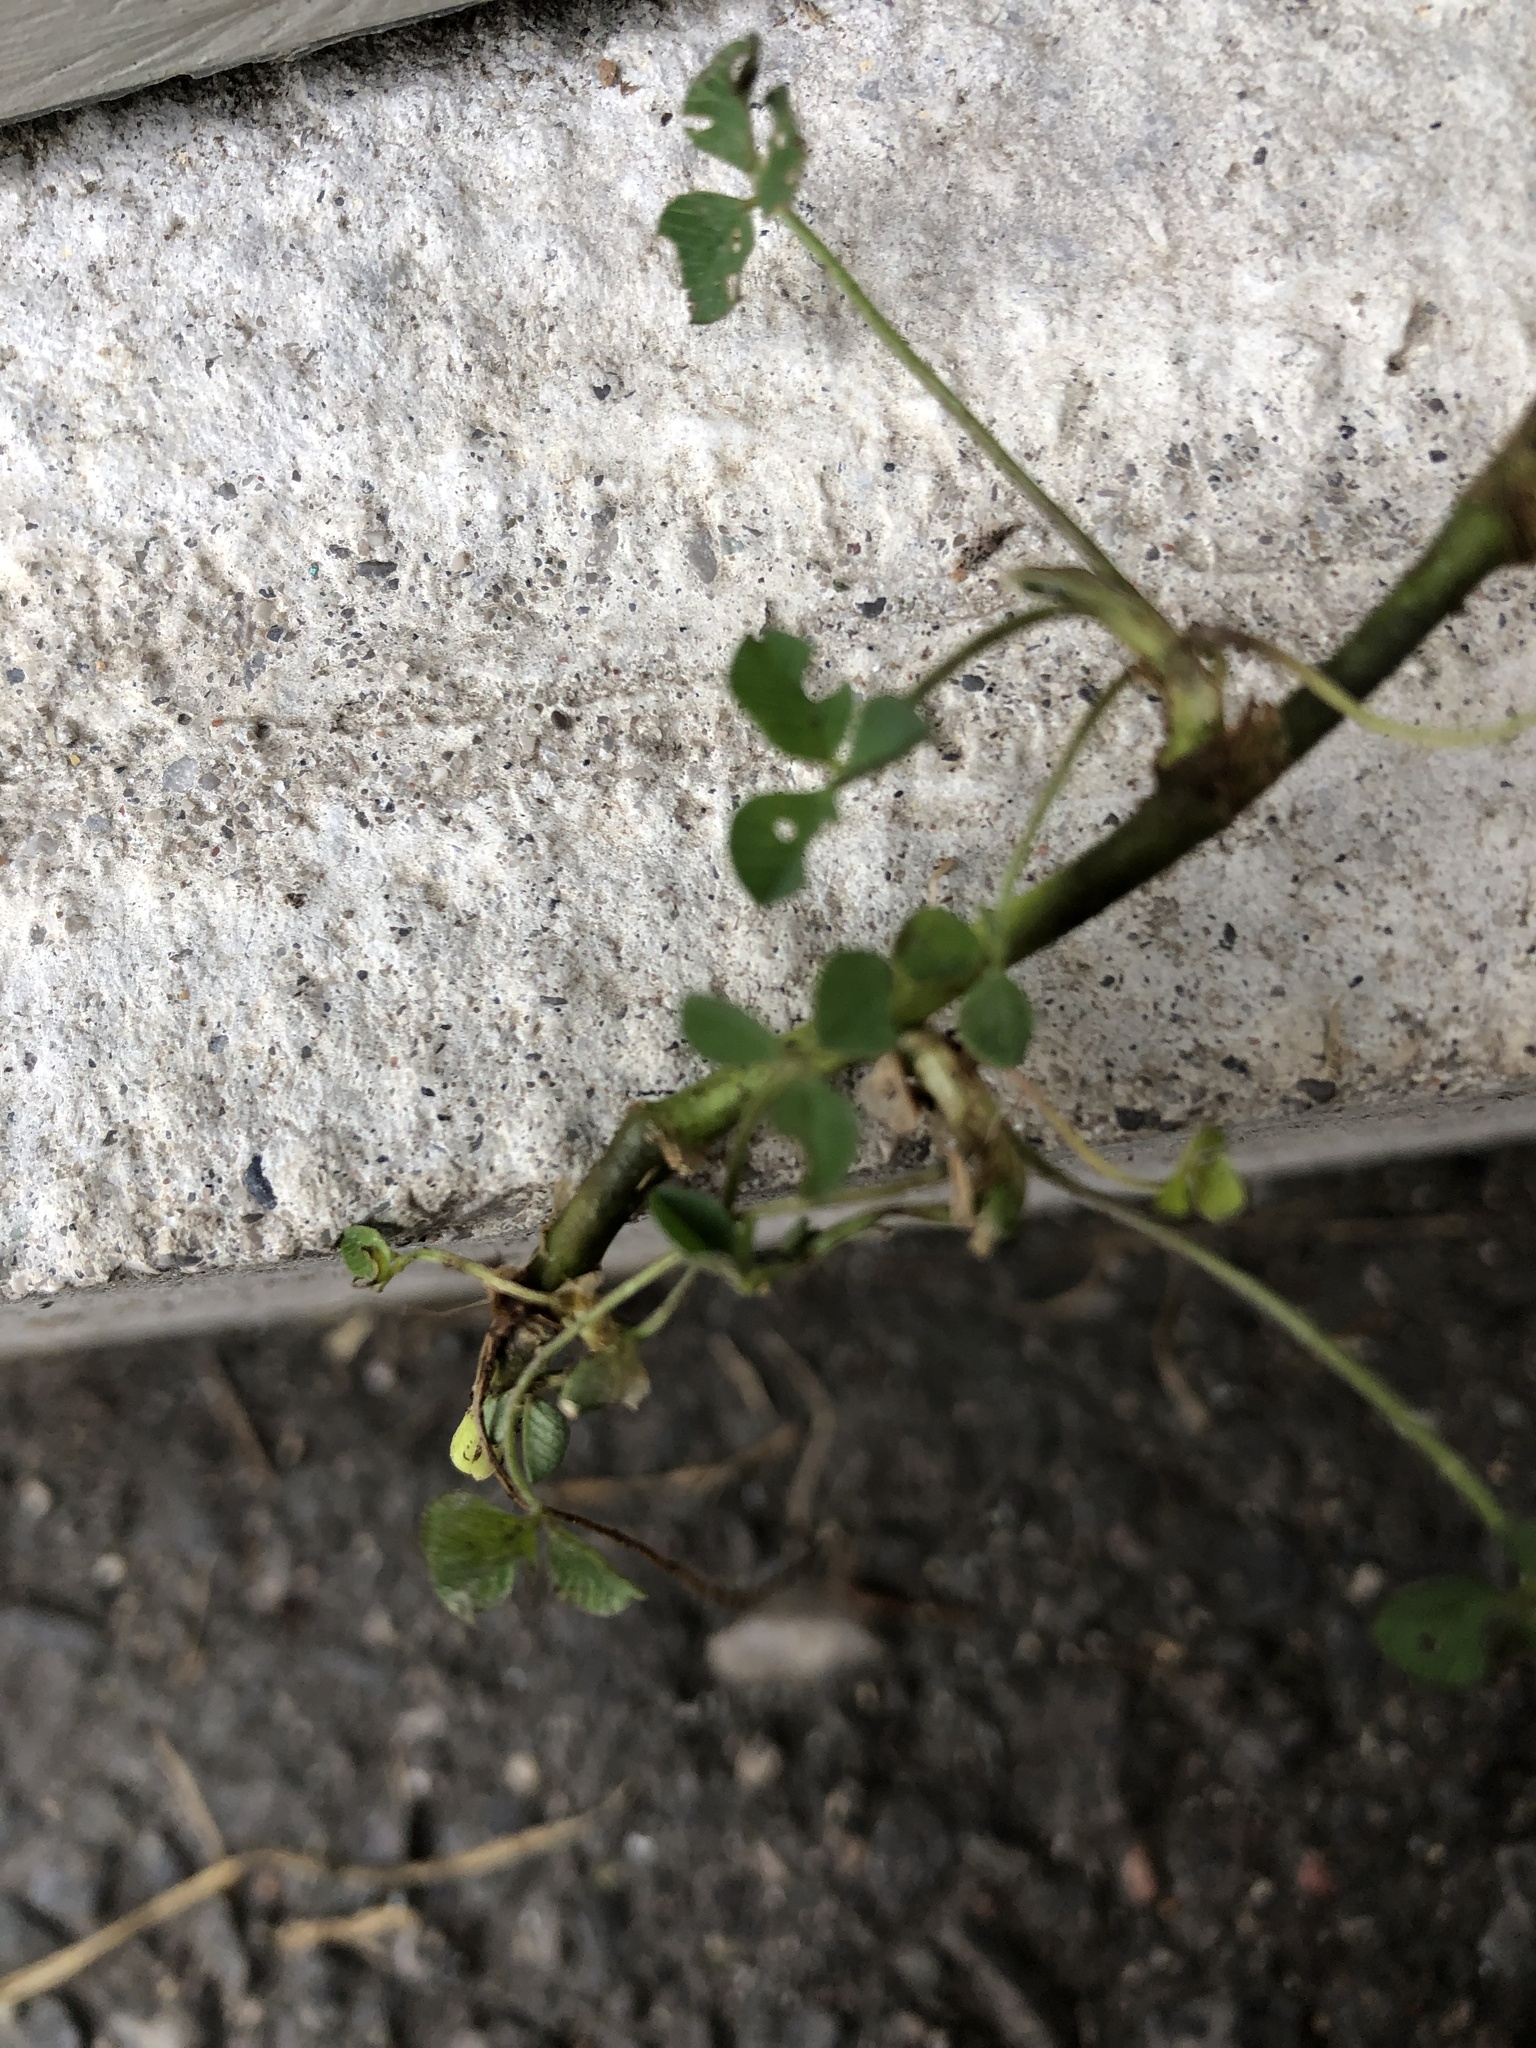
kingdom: Plantae
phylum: Tracheophyta
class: Magnoliopsida
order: Fabales
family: Fabaceae
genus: Trifolium
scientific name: Trifolium repens
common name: White clover
